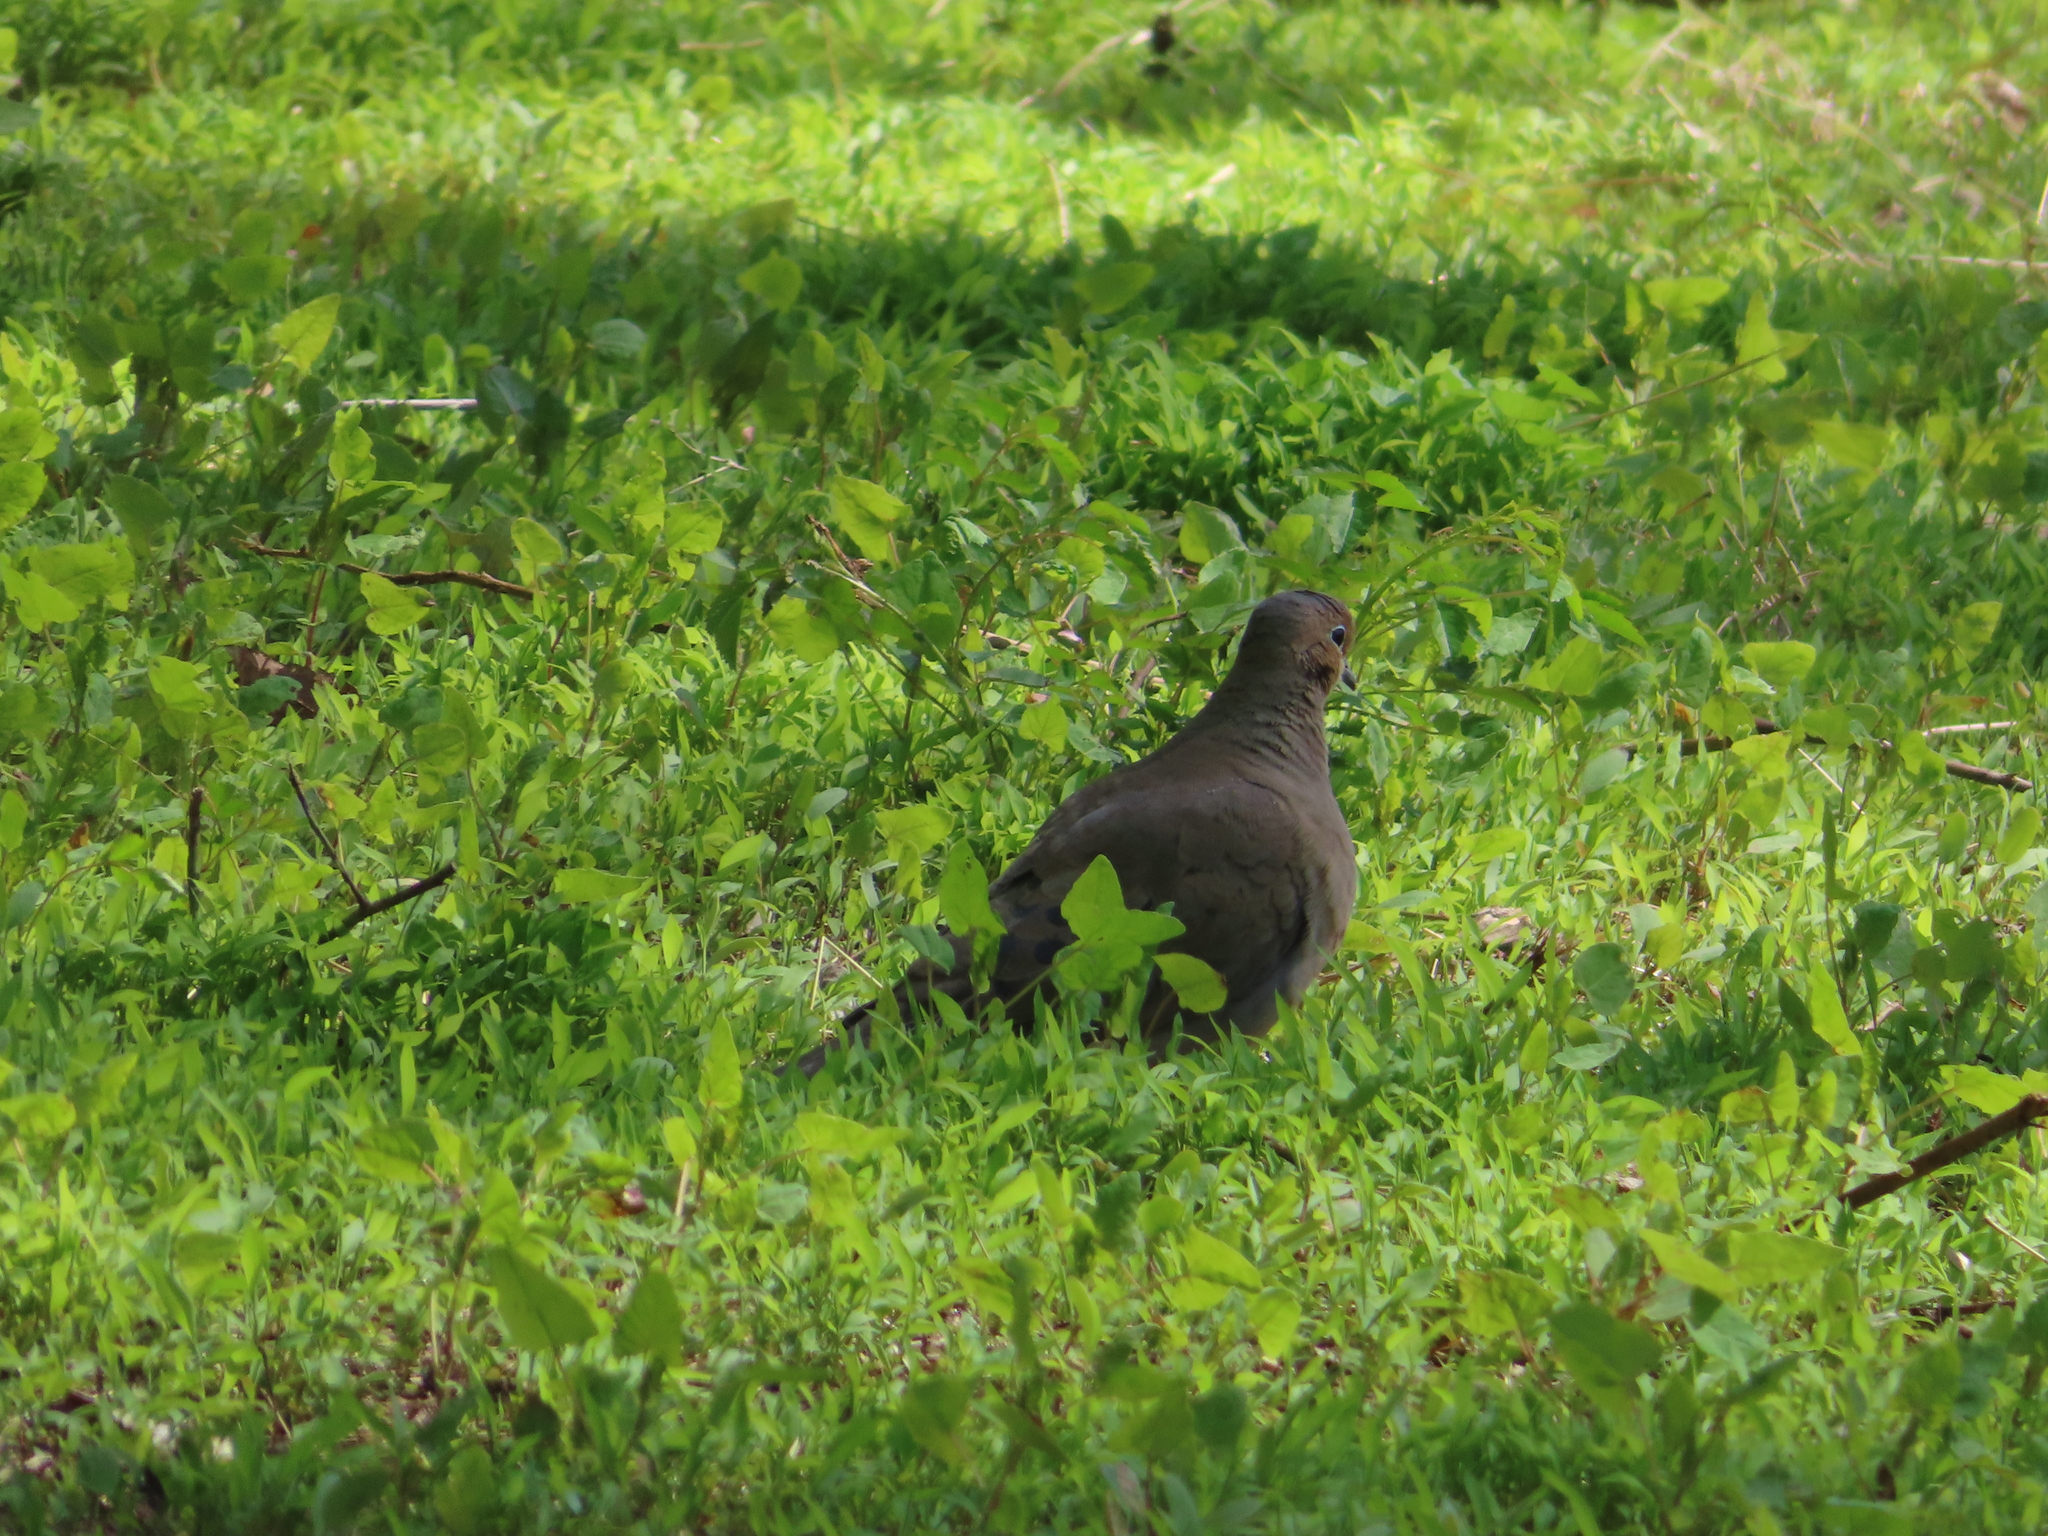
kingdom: Animalia
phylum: Chordata
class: Aves
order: Columbiformes
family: Columbidae
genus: Zenaida
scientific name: Zenaida macroura
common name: Mourning dove
